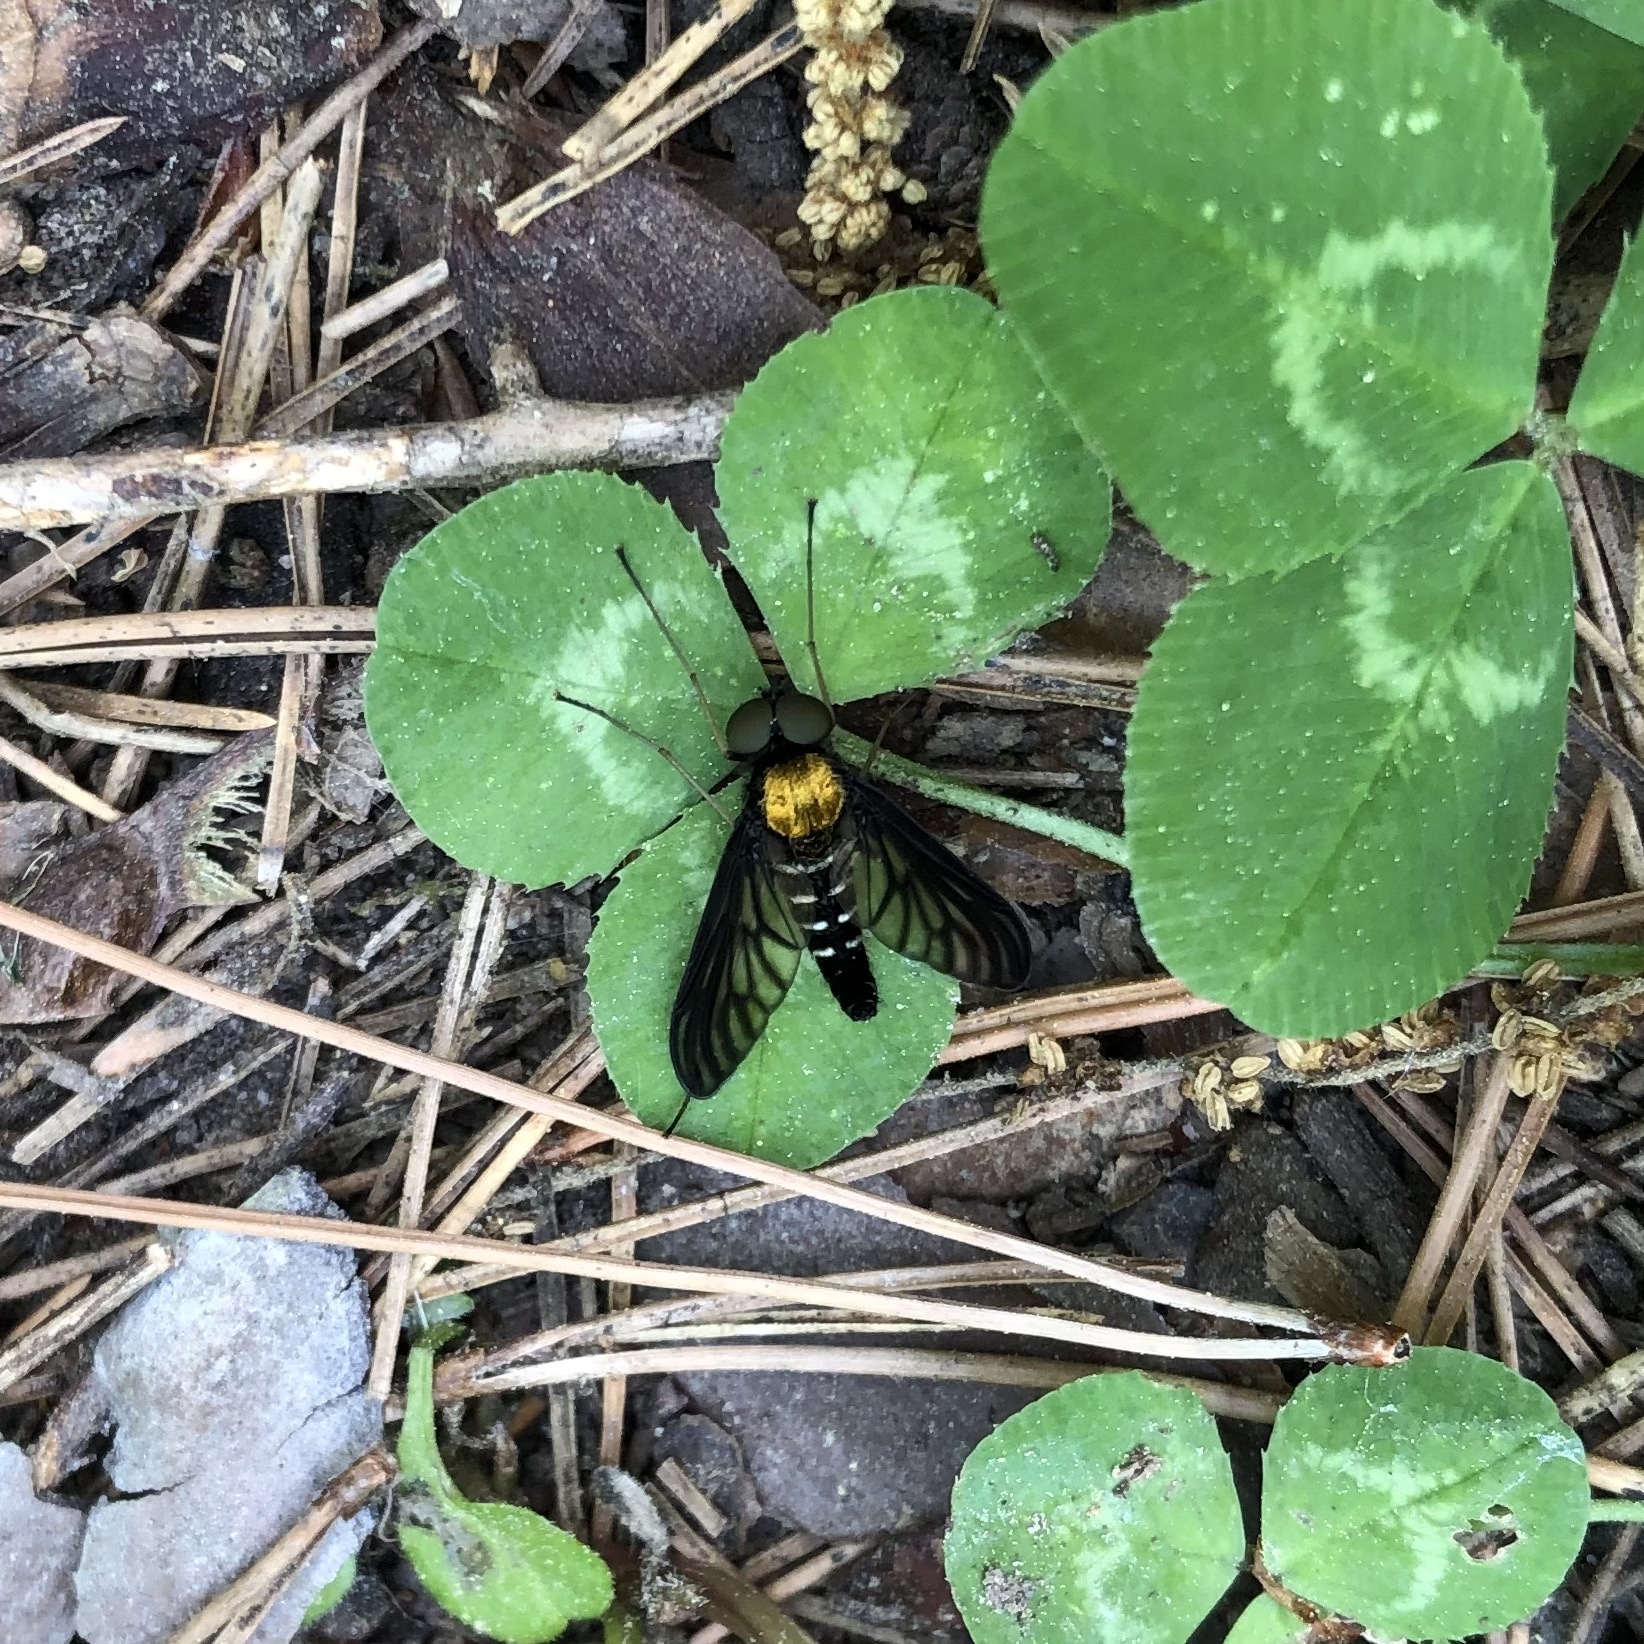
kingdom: Animalia
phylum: Arthropoda
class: Insecta
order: Diptera
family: Rhagionidae
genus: Chrysopilus
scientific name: Chrysopilus thoracicus
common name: Golden-backed snipe fly
